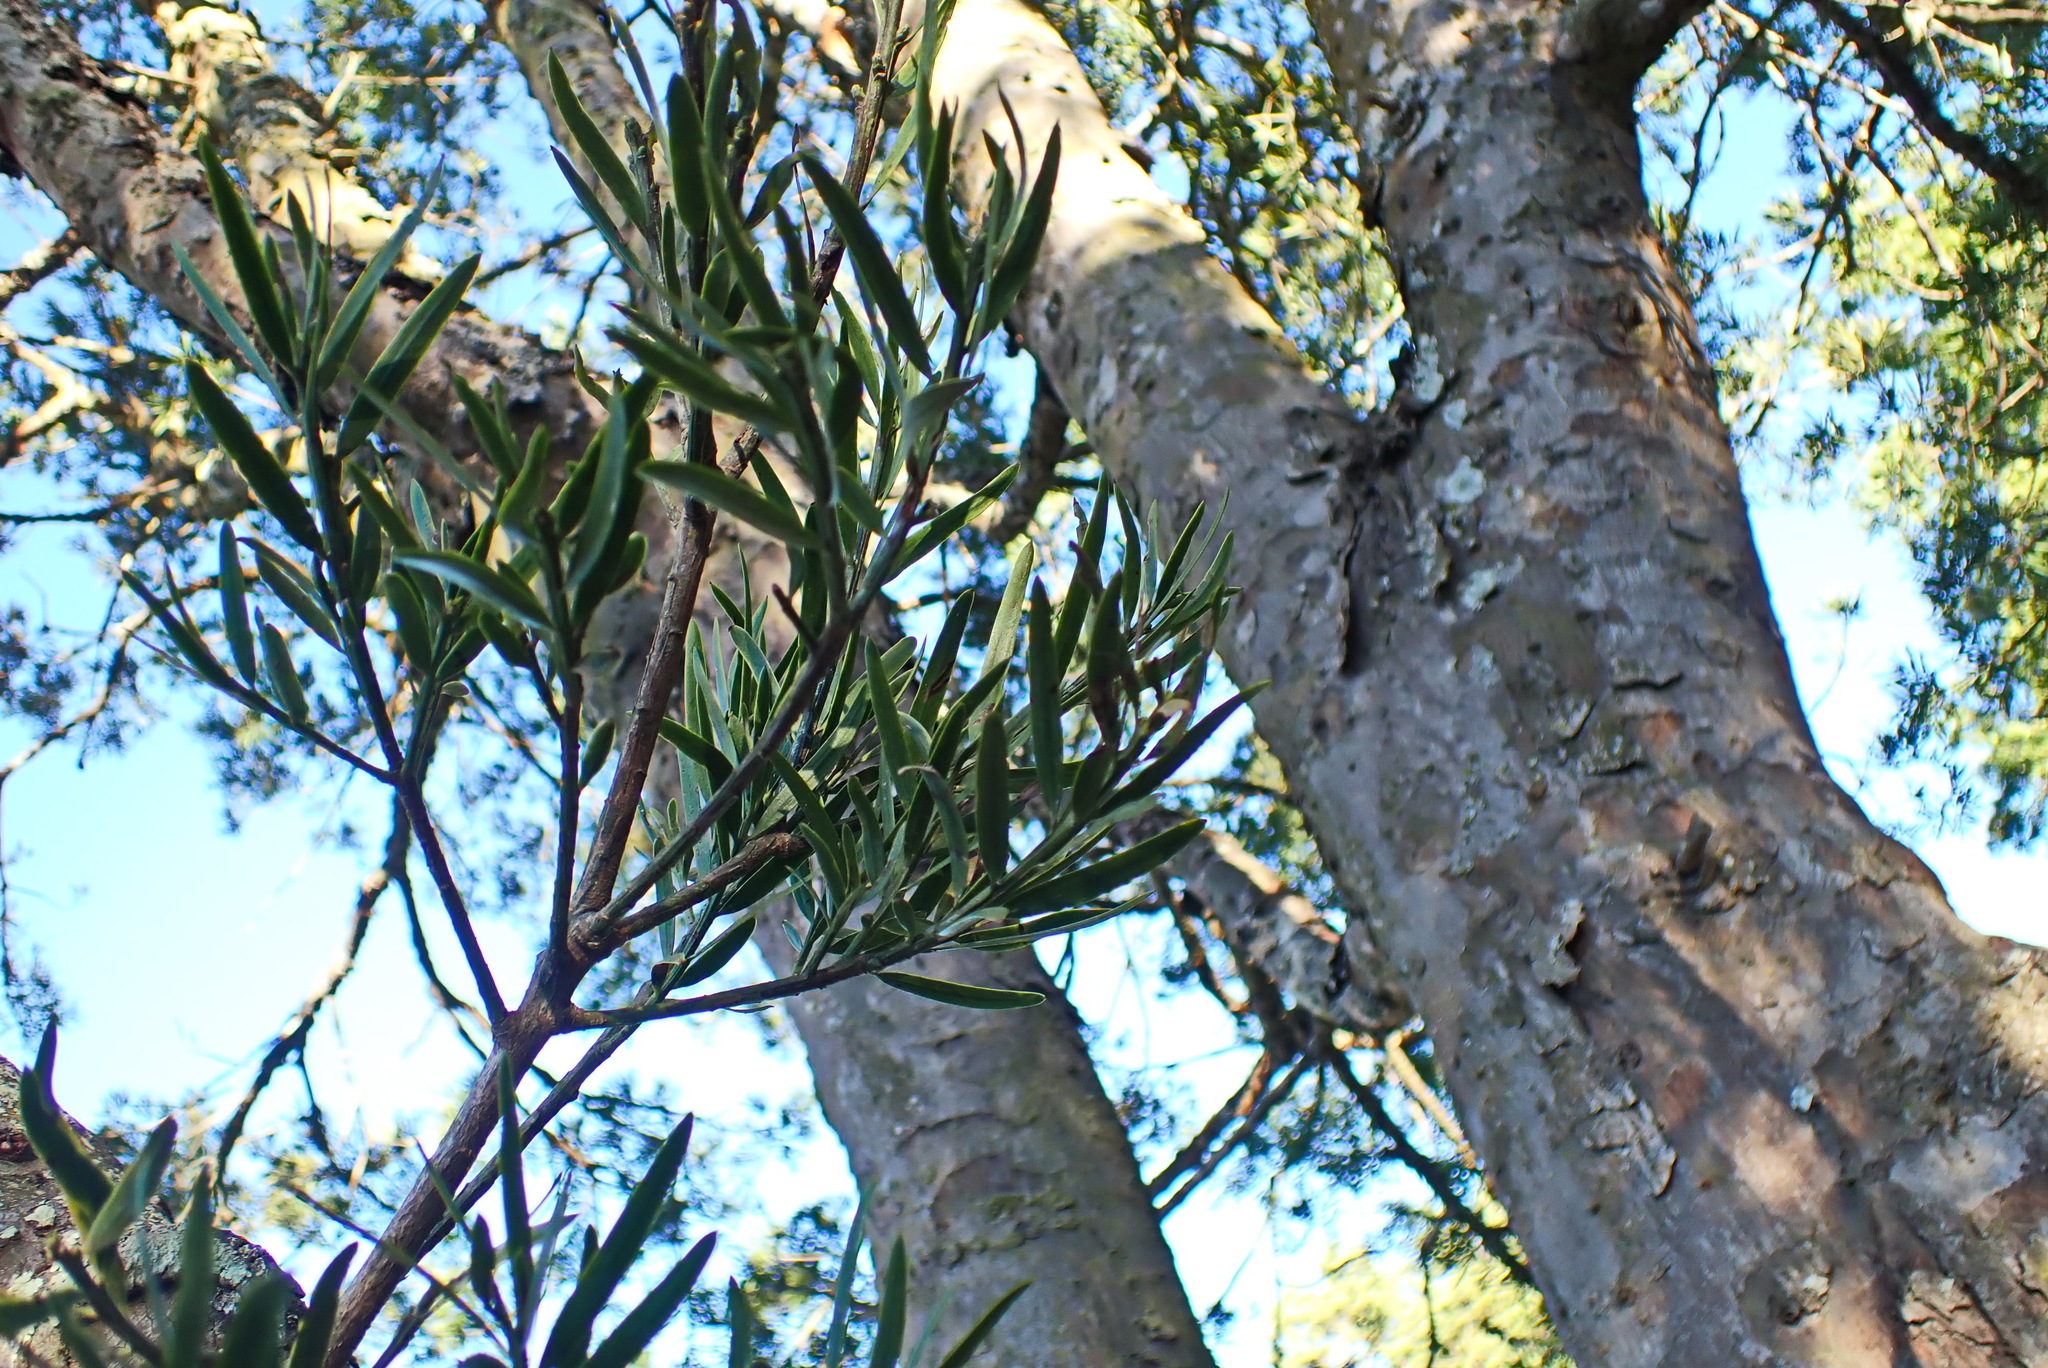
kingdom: Plantae
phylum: Tracheophyta
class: Pinopsida
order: Pinales
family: Podocarpaceae
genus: Afrocarpus
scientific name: Afrocarpus falcatus
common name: Bastard yellowwood
